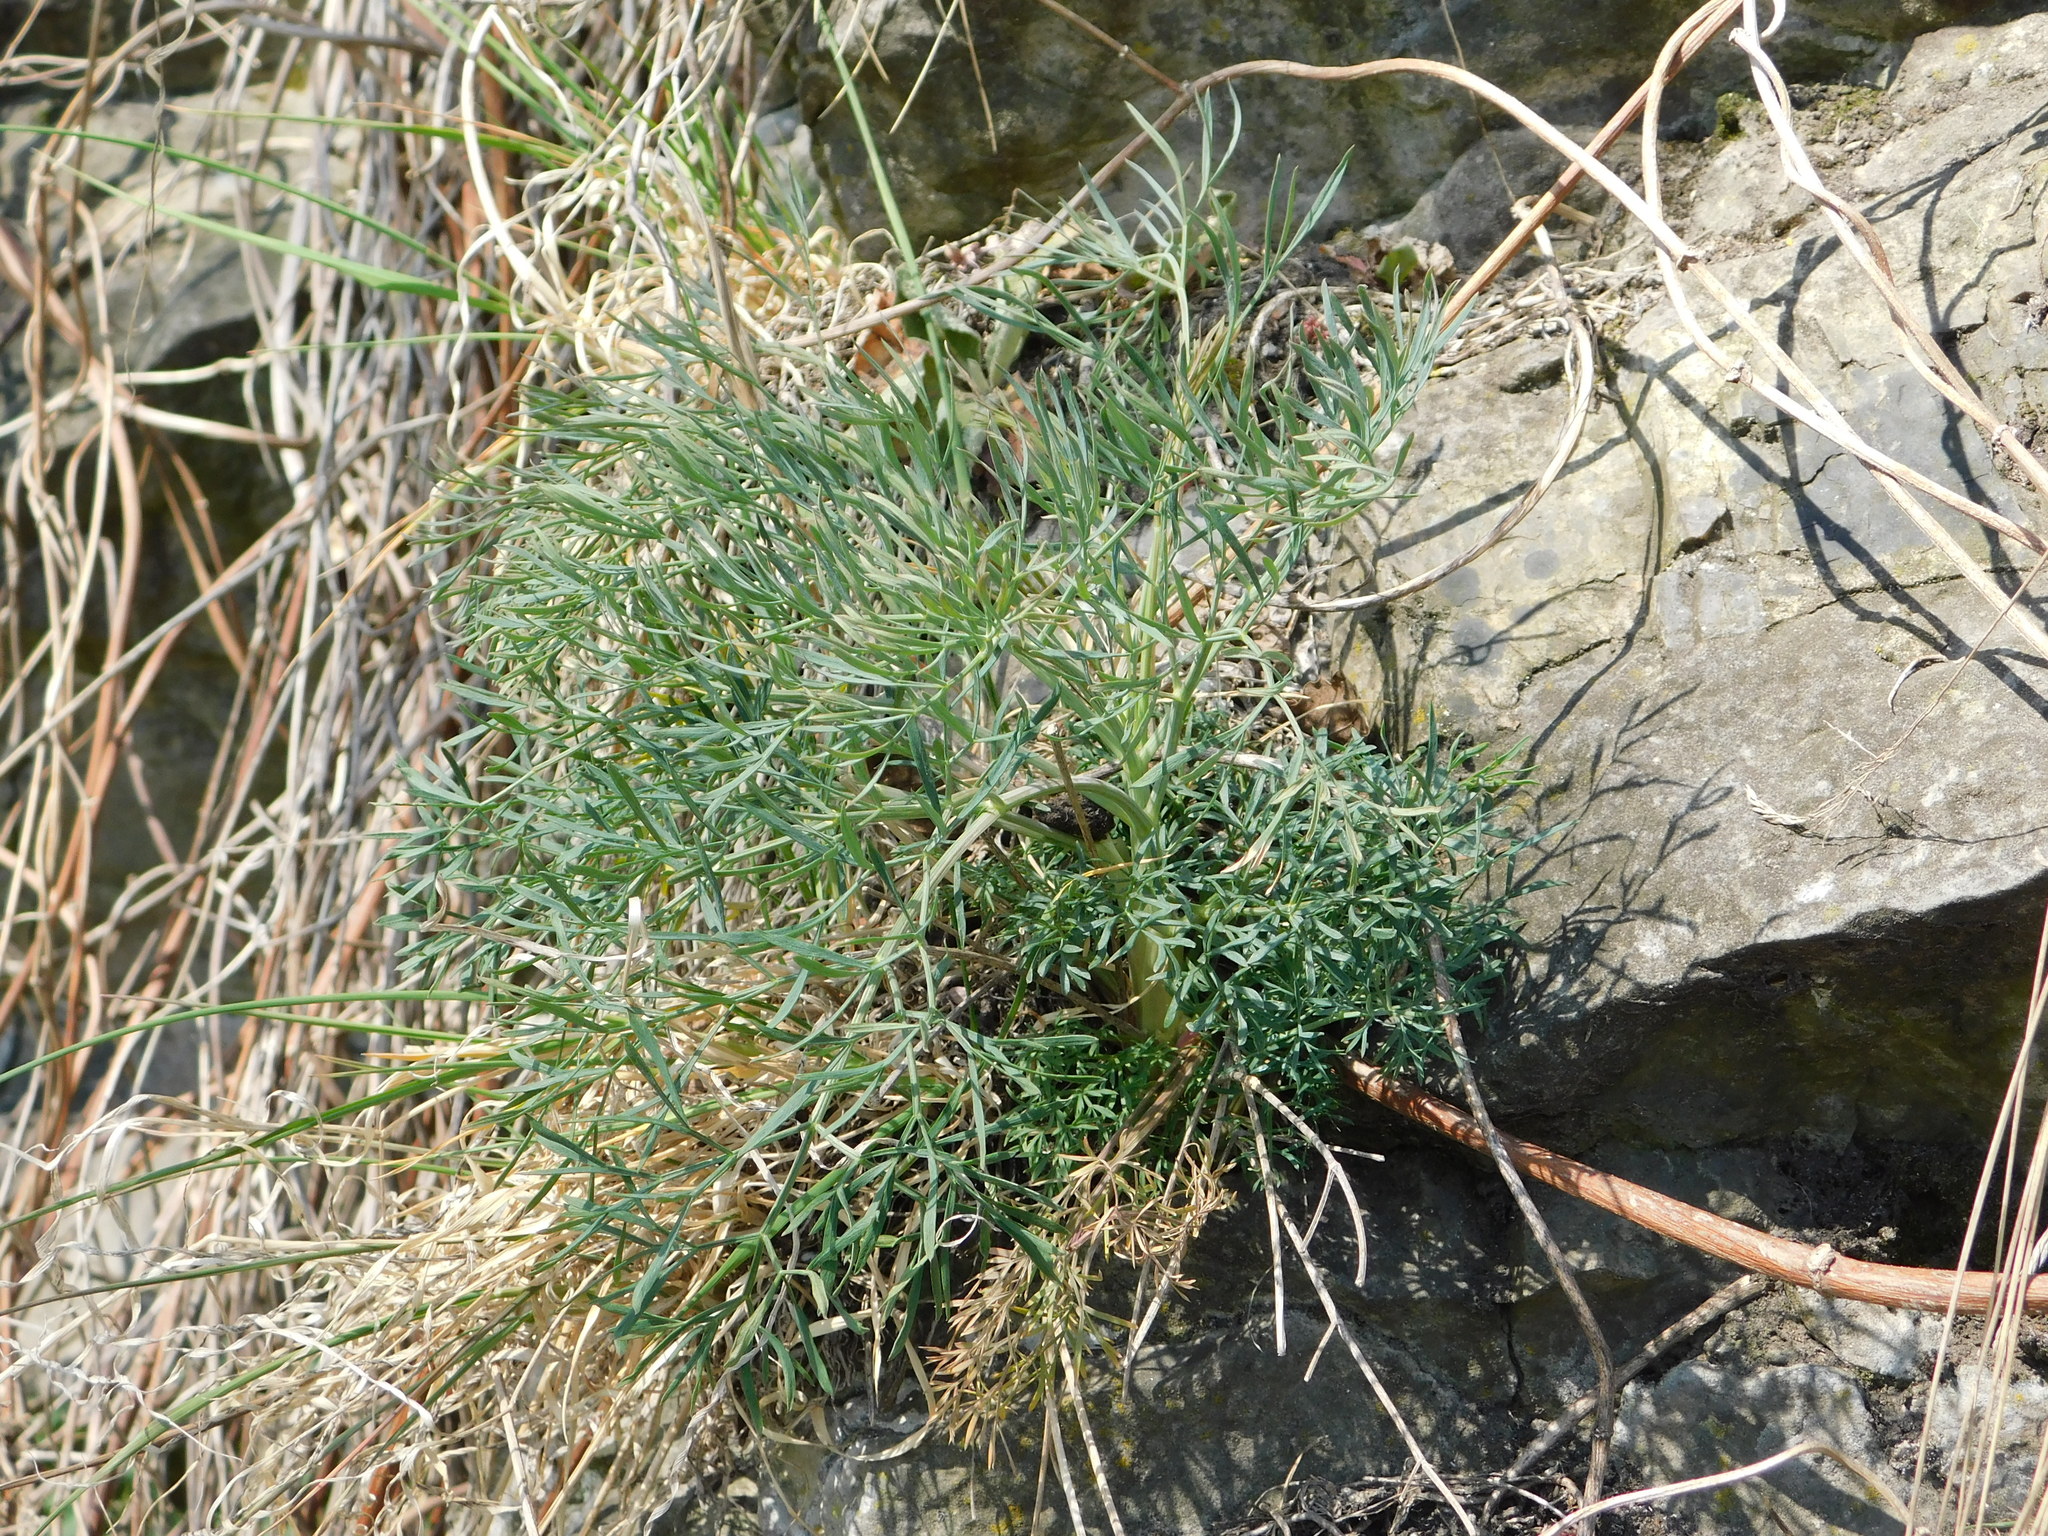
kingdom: Plantae
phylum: Tracheophyta
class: Magnoliopsida
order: Apiales
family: Apiaceae
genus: Seseli
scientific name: Seseli osseum
